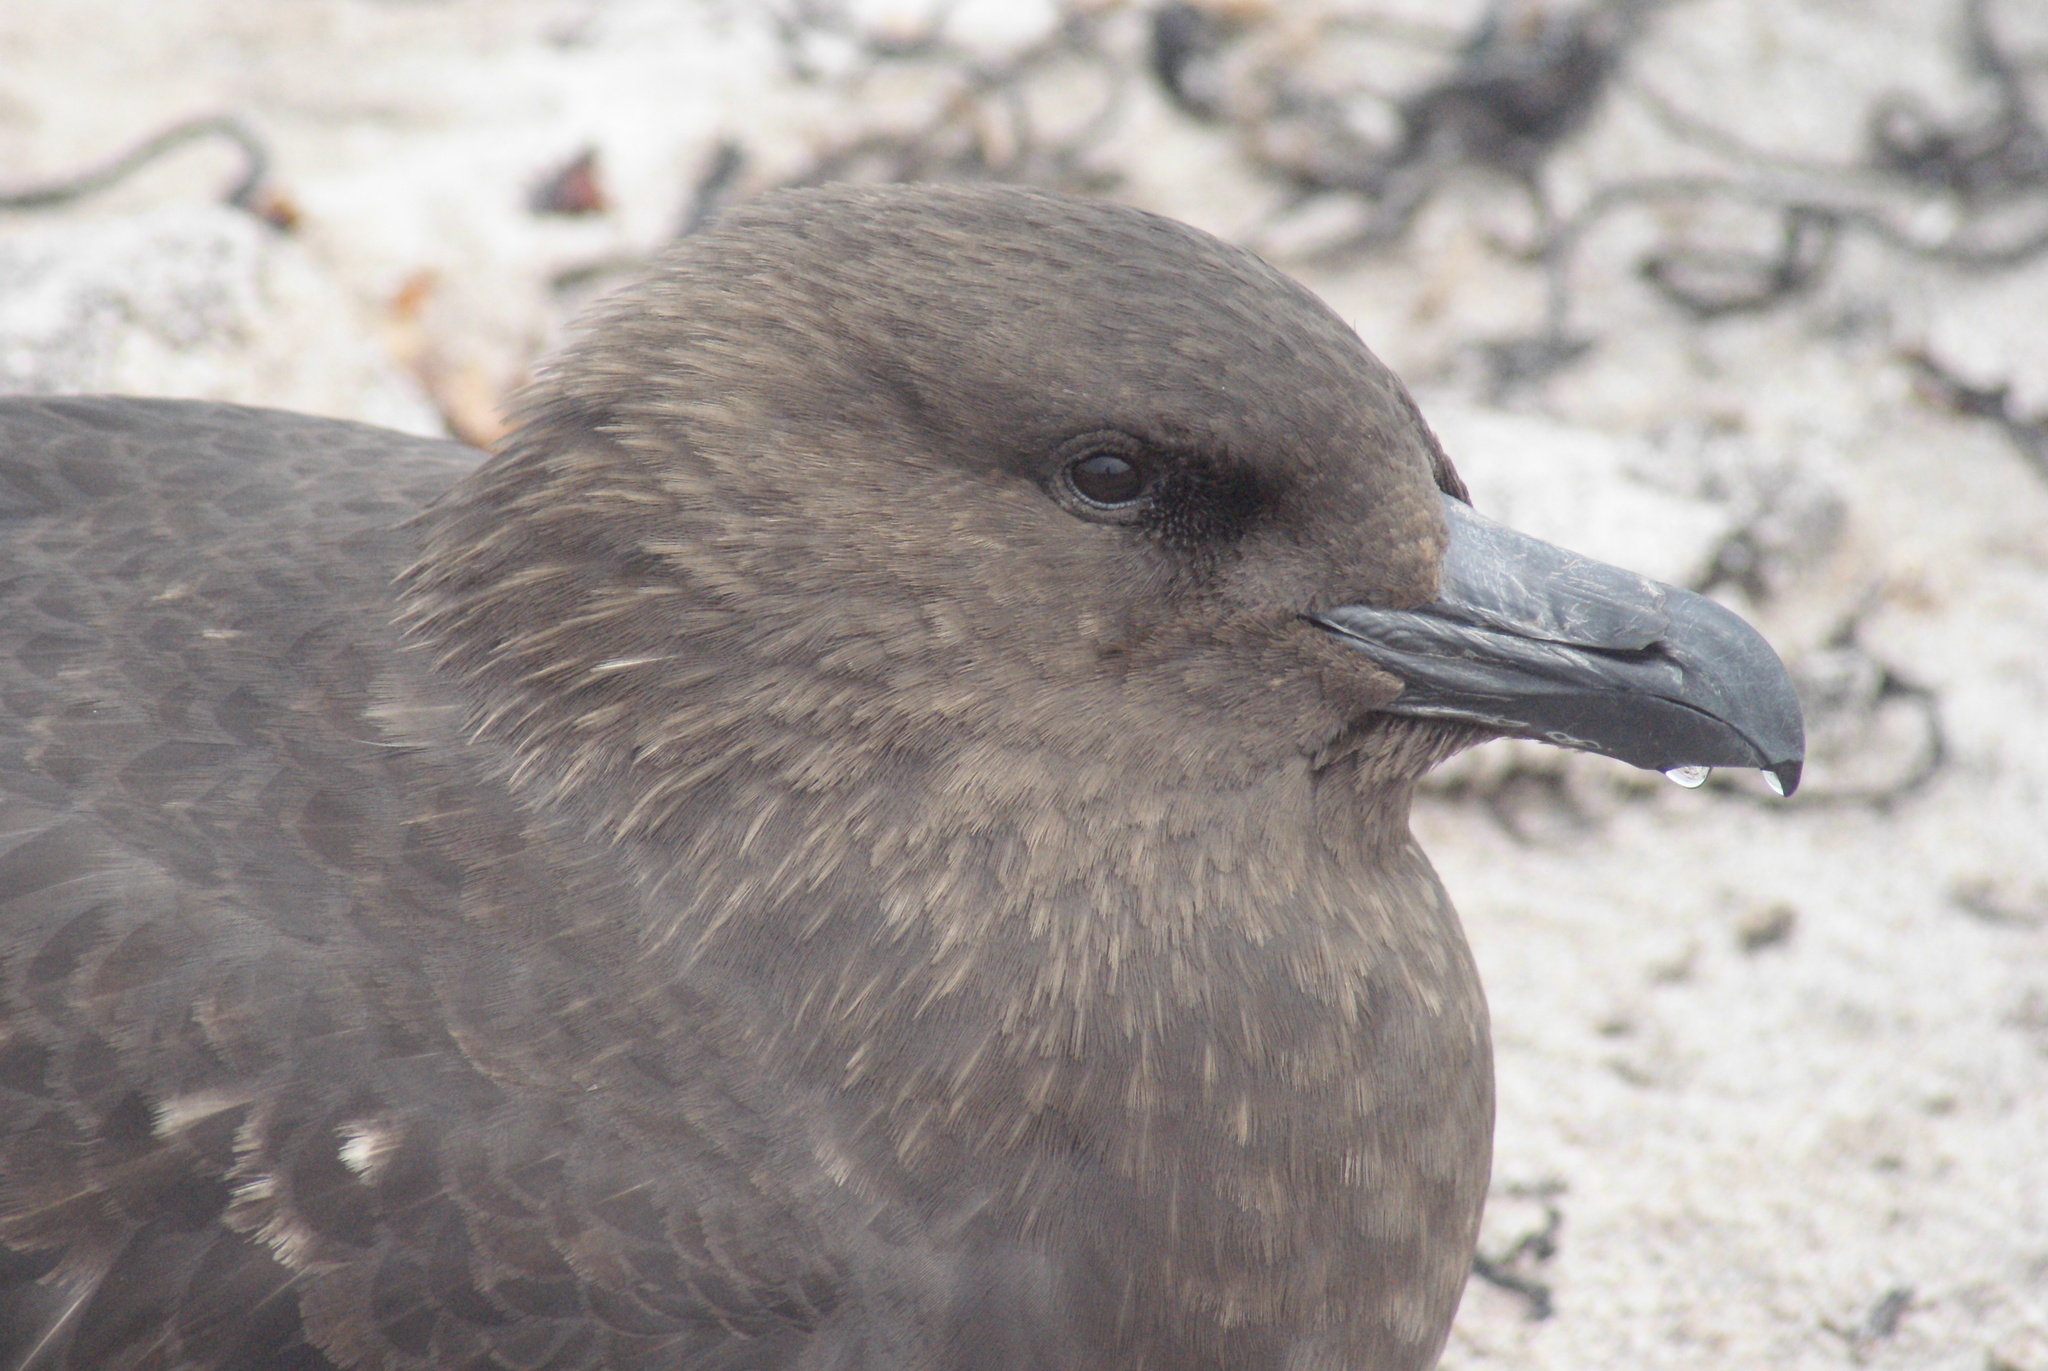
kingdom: Animalia
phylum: Chordata
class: Aves
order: Charadriiformes
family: Stercorariidae
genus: Stercorarius
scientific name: Stercorarius antarcticus
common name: Brown skua
